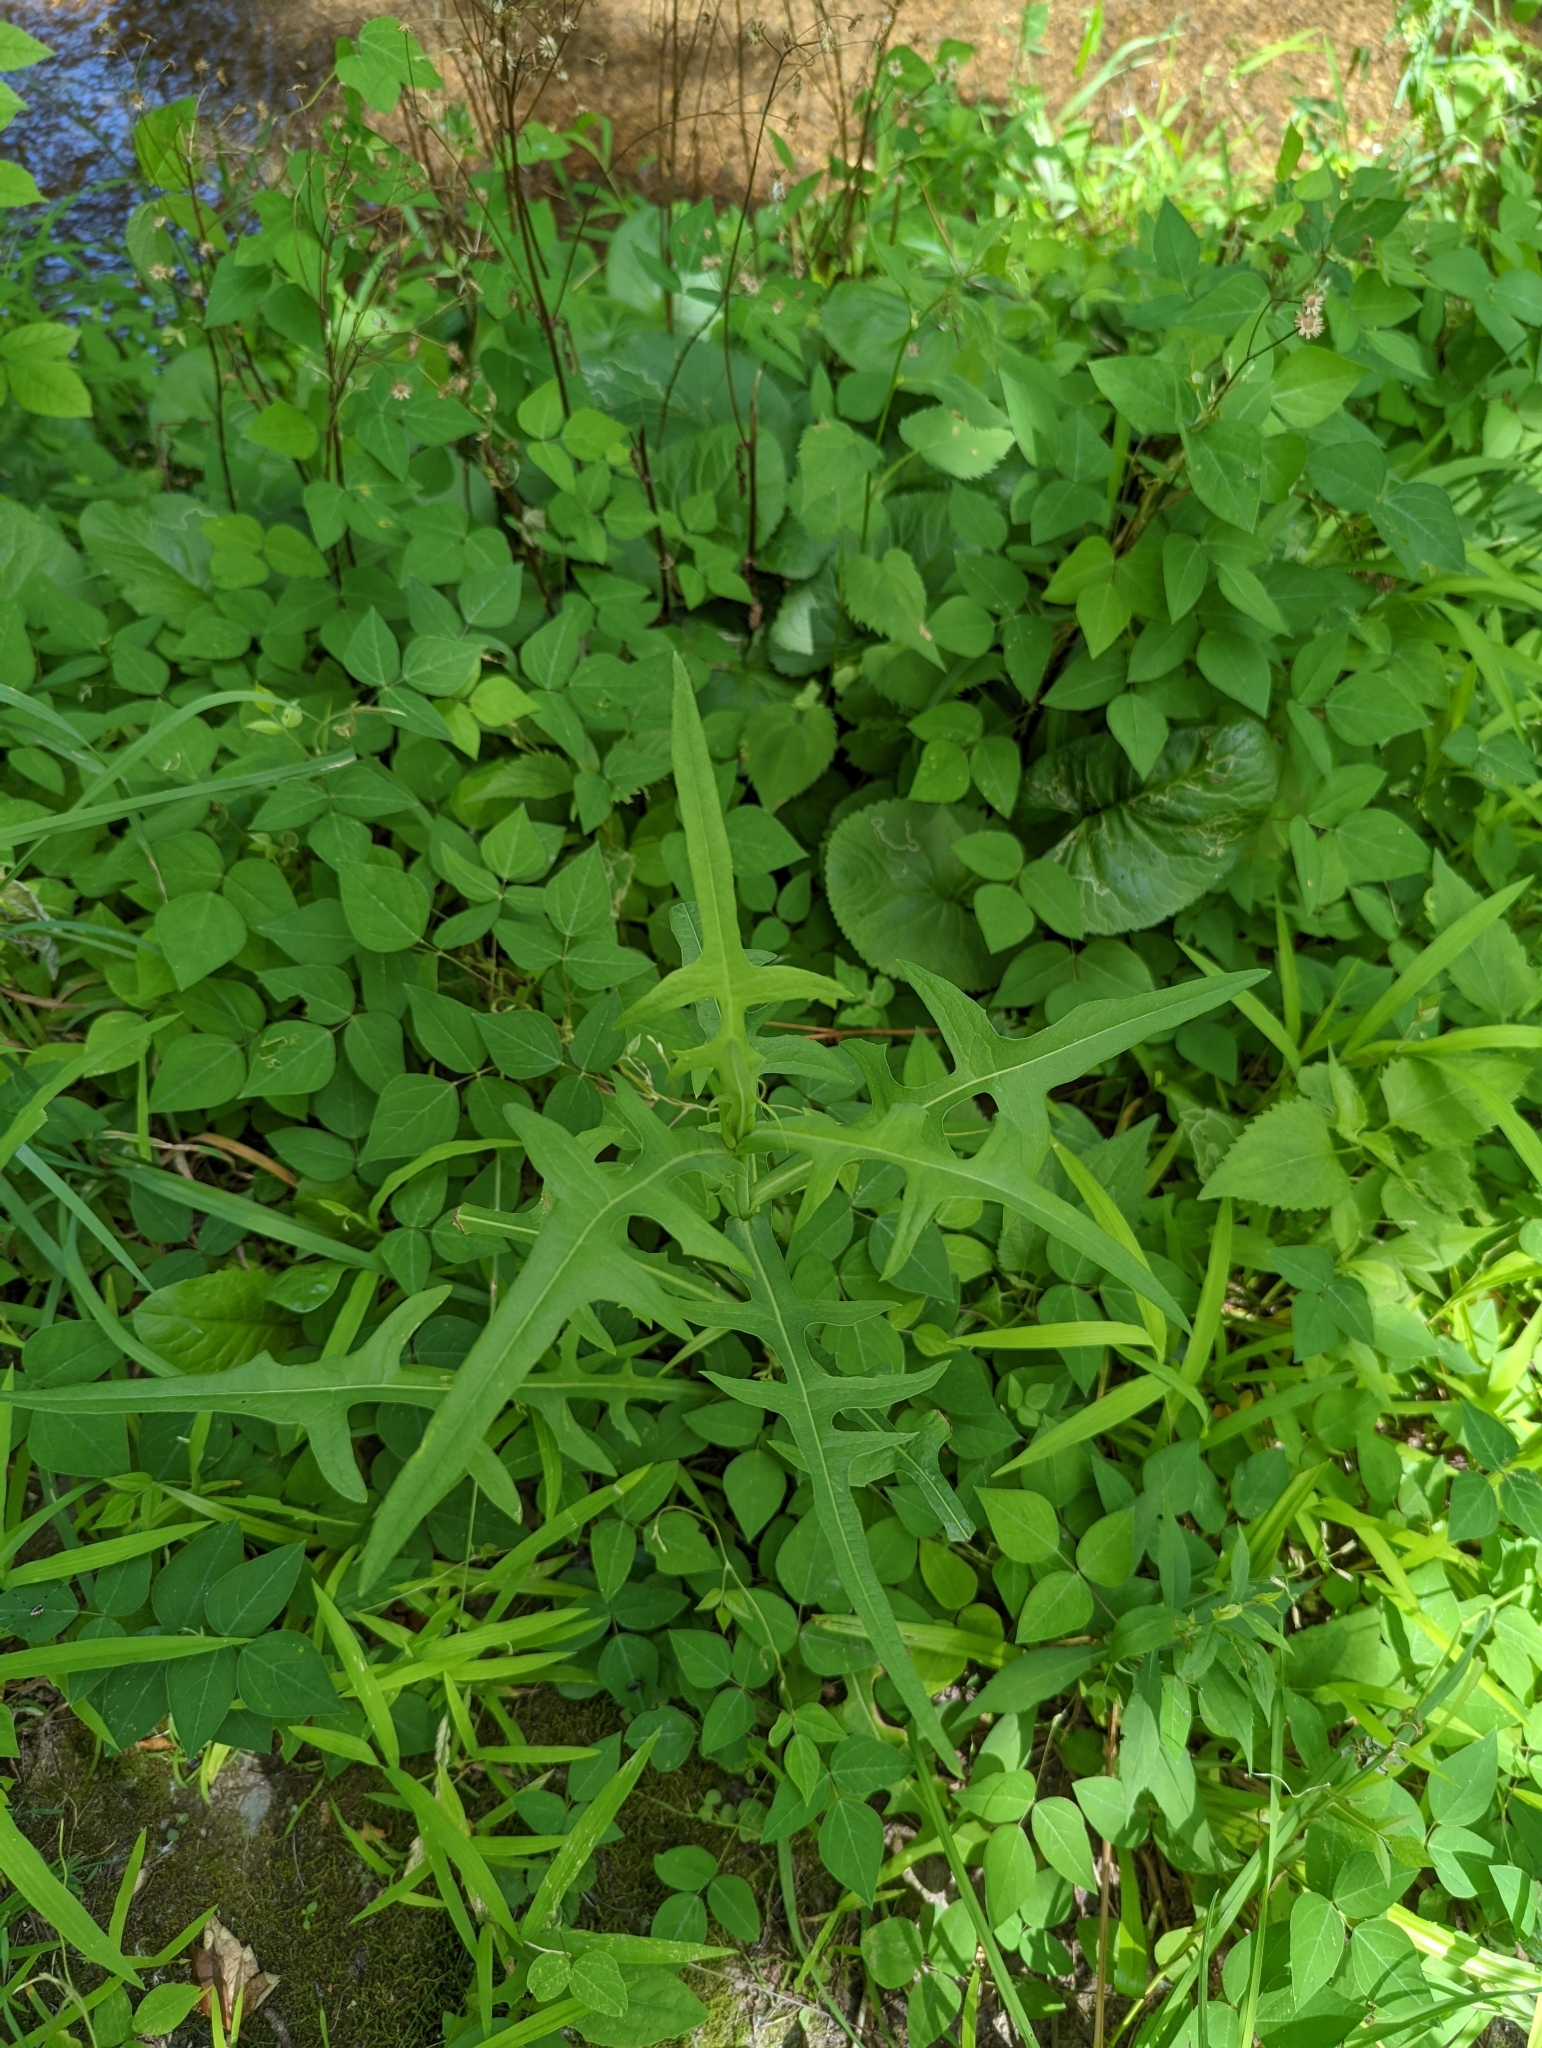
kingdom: Plantae
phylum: Tracheophyta
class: Magnoliopsida
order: Asterales
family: Asteraceae
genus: Lactuca
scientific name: Lactuca canadensis
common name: Canada lettuce
